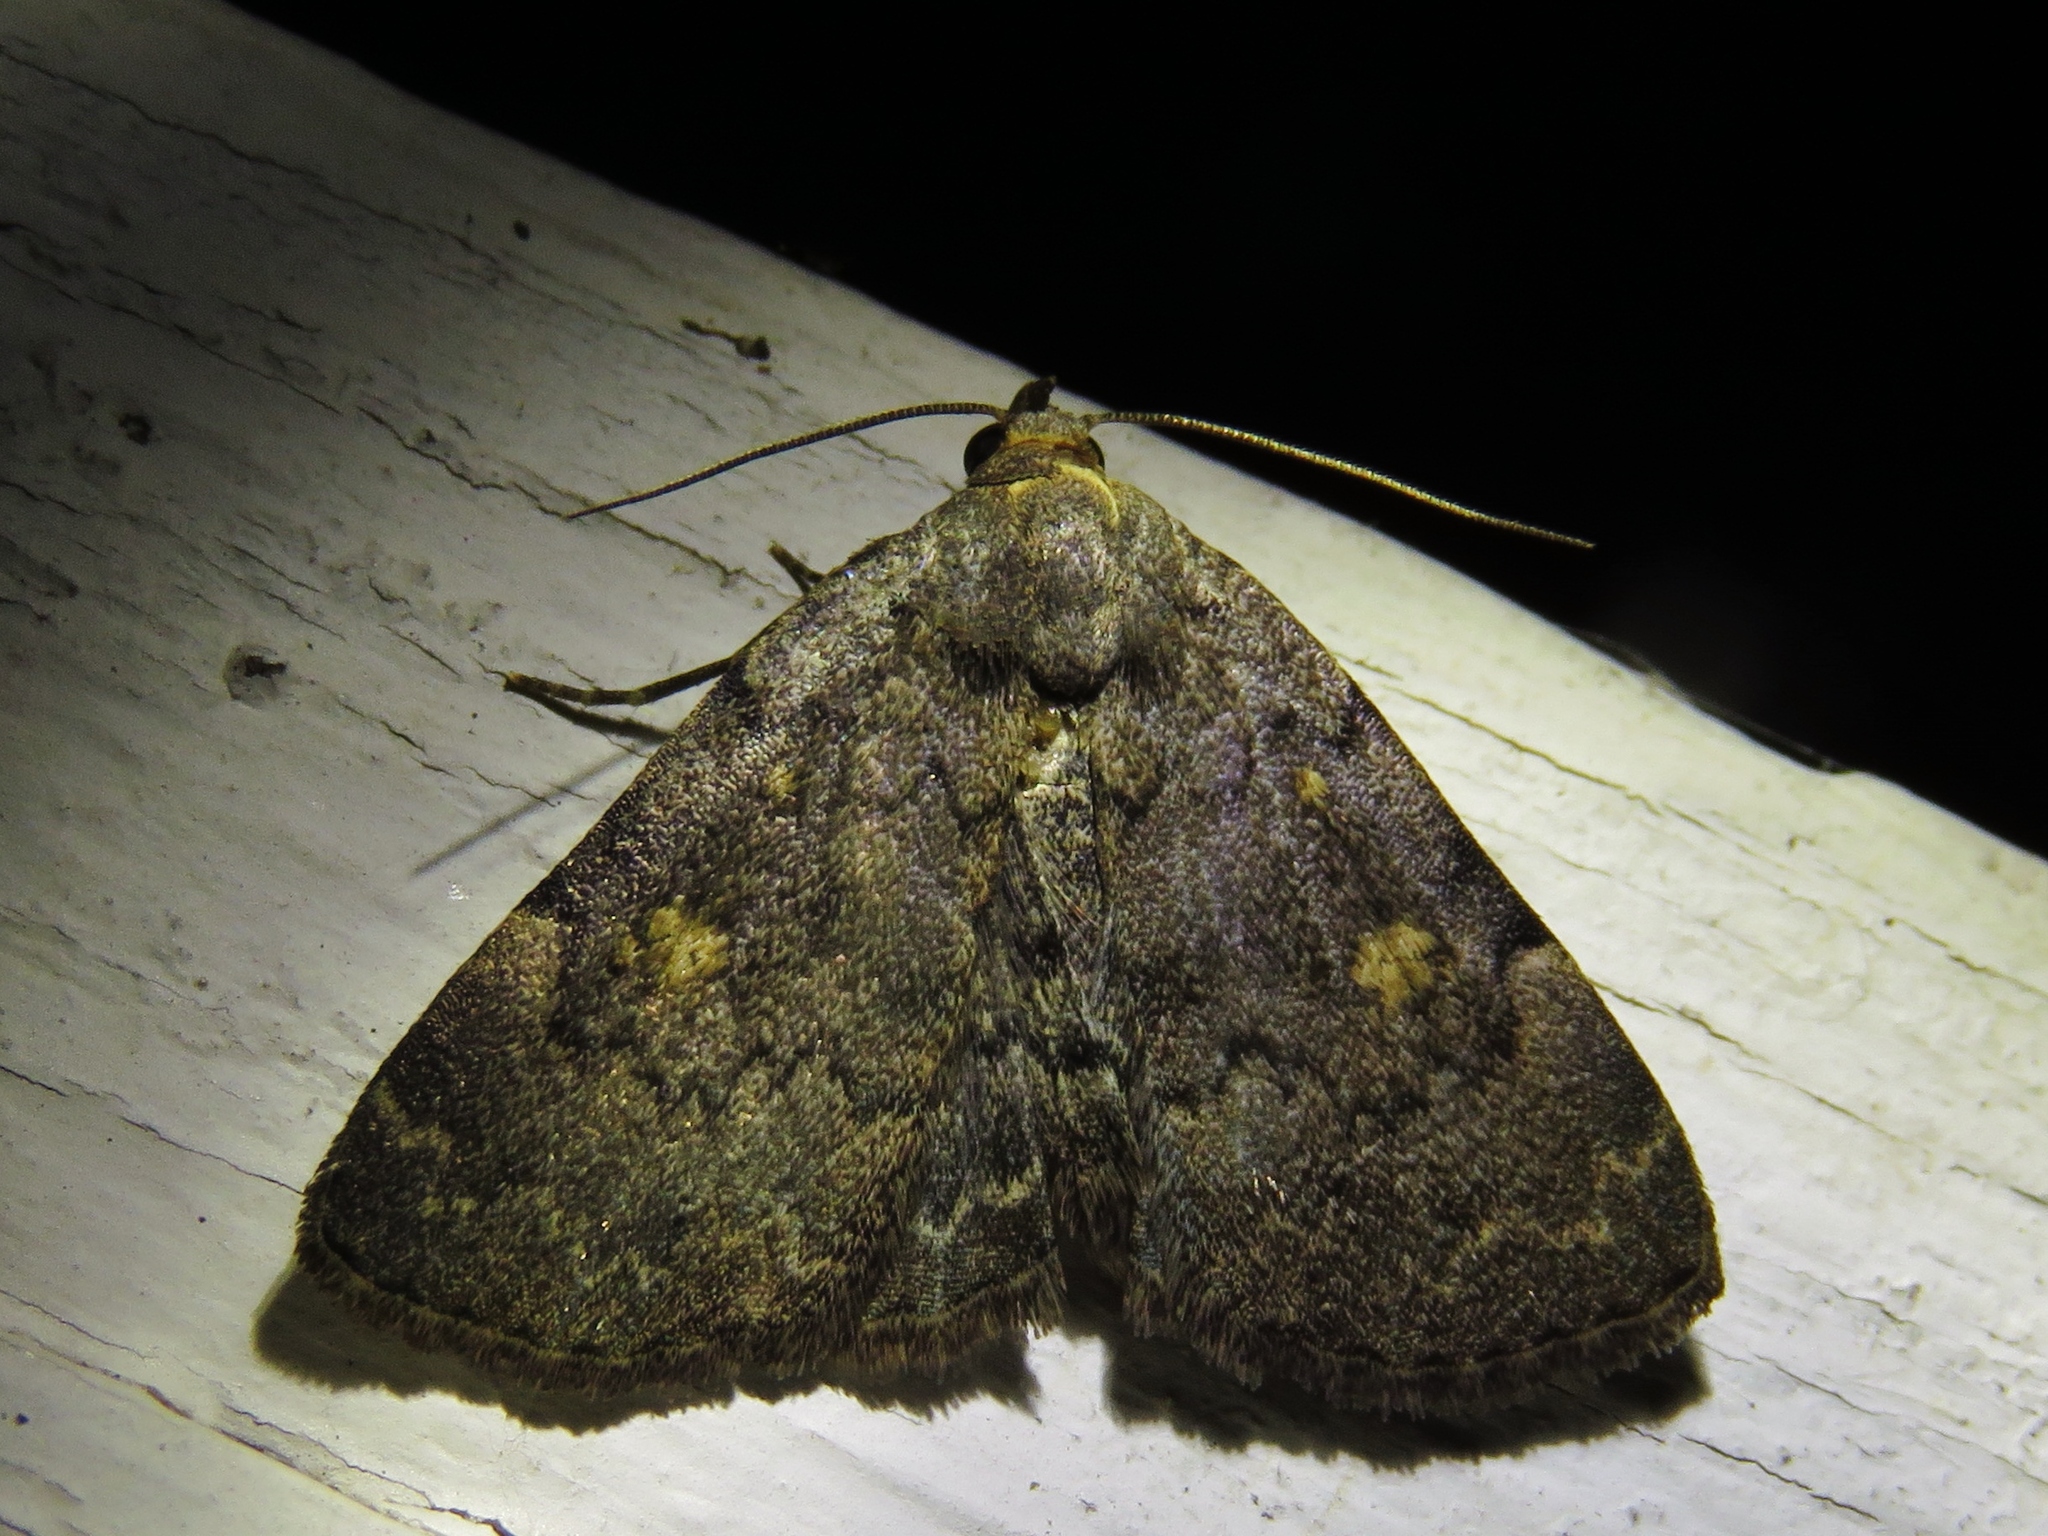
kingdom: Animalia
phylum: Arthropoda
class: Insecta
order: Lepidoptera
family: Erebidae
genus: Idia
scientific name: Idia aemula
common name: Common idia moth
